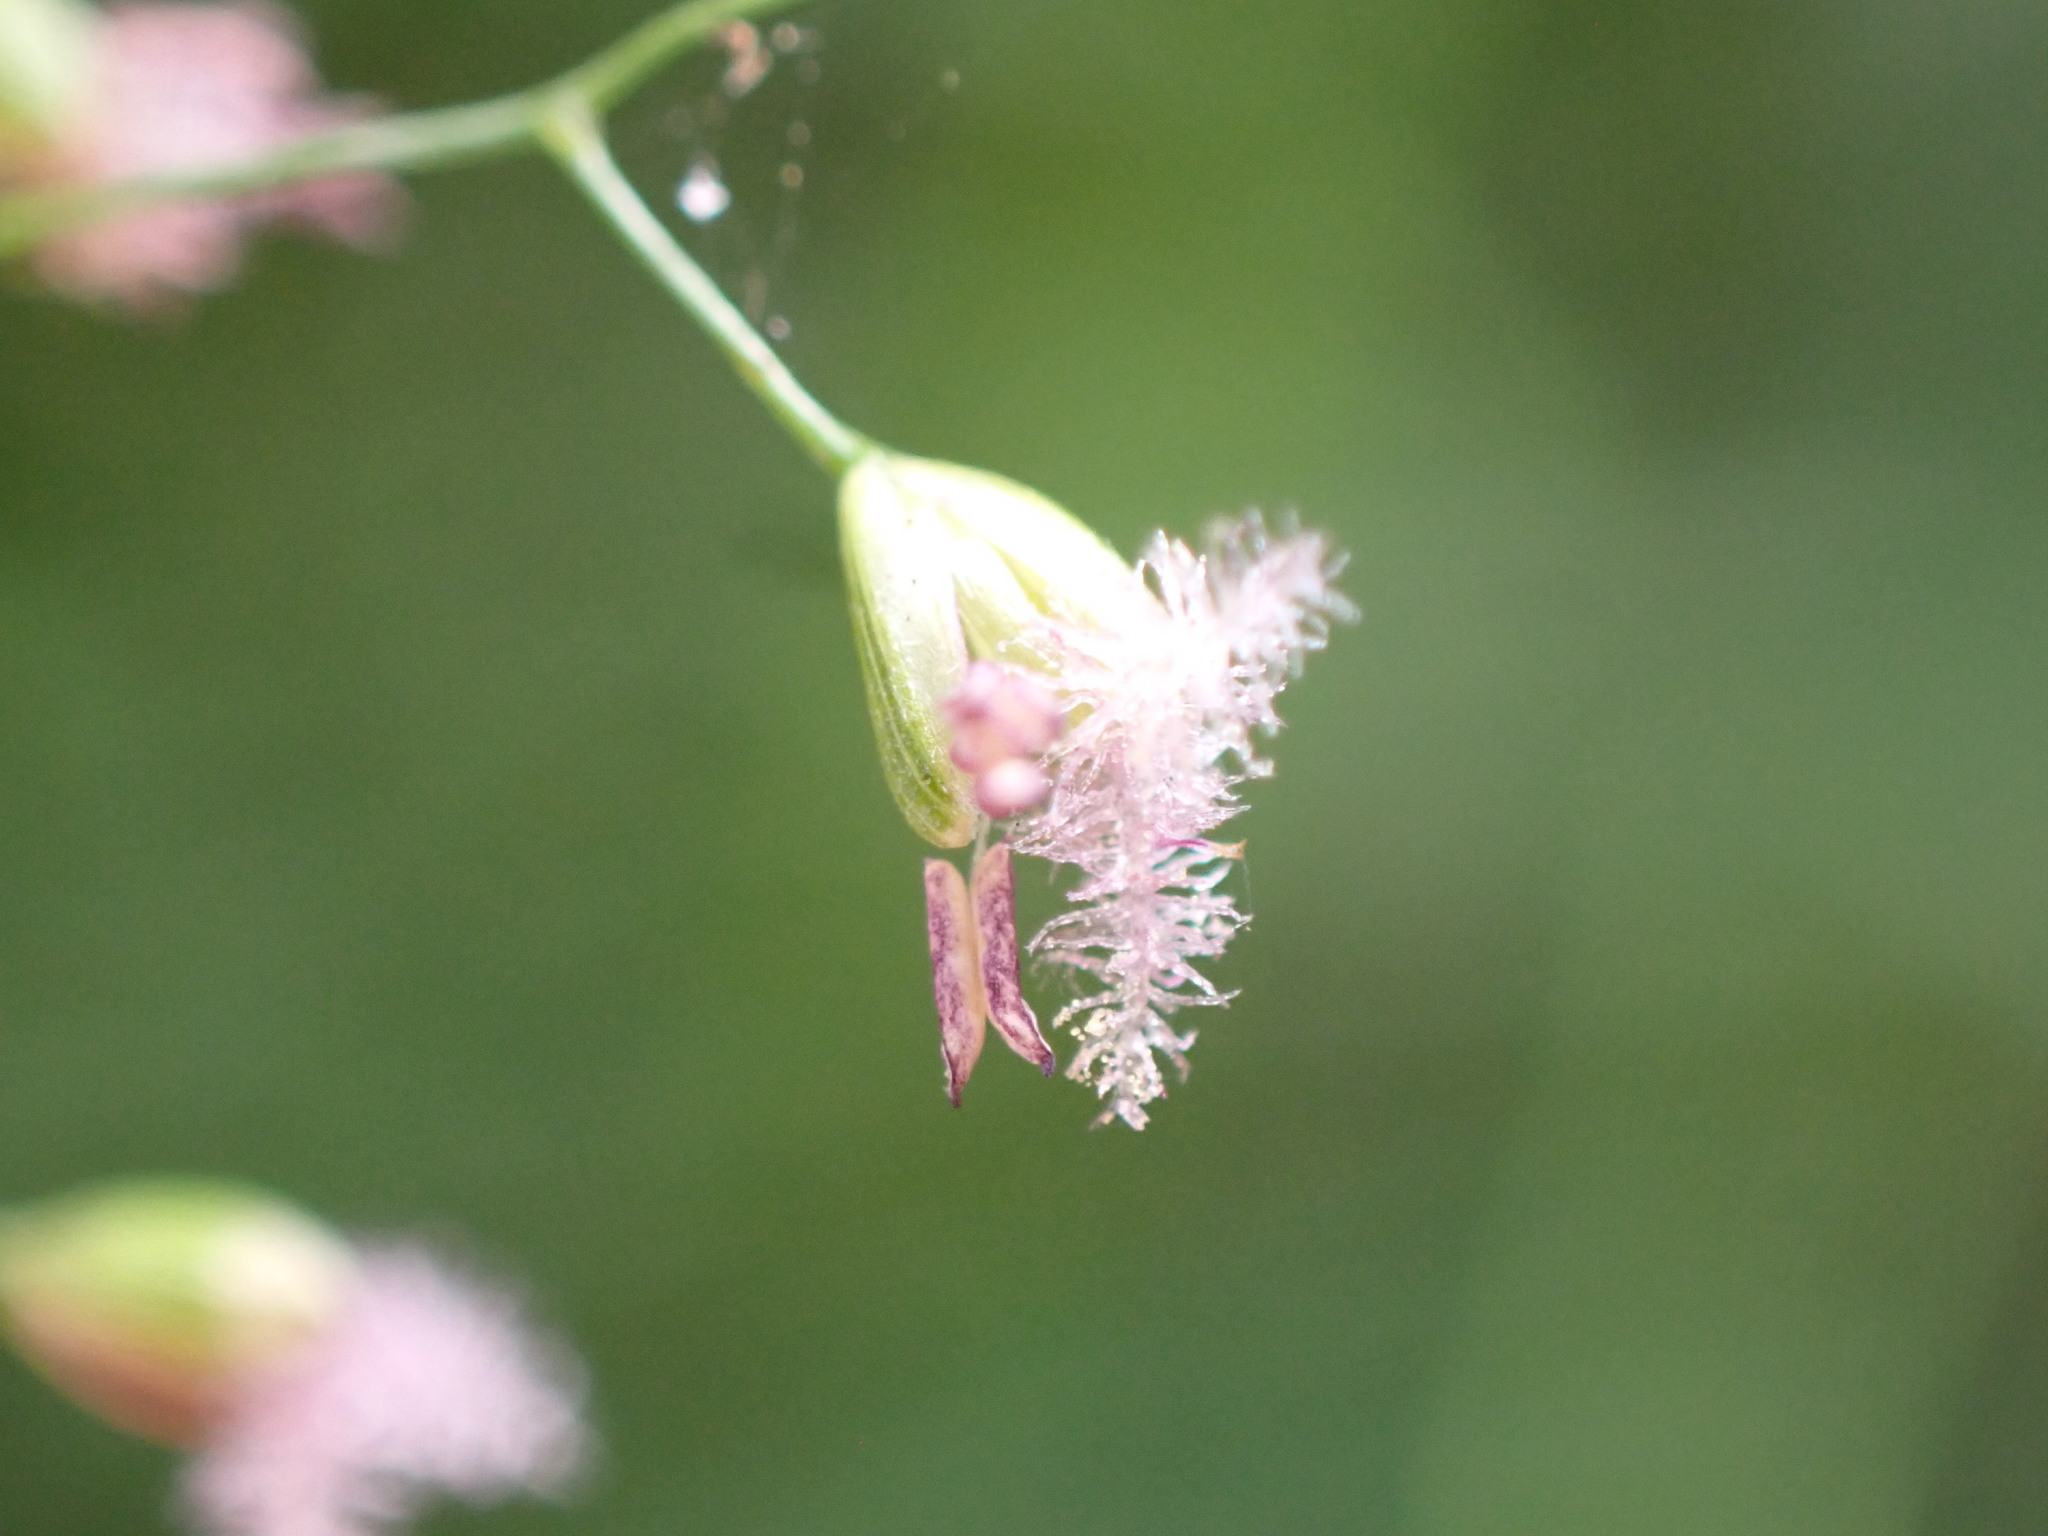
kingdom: Plantae
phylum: Tracheophyta
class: Liliopsida
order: Poales
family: Poaceae
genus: Isachne
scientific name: Isachne globosa
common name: Swamp millet
